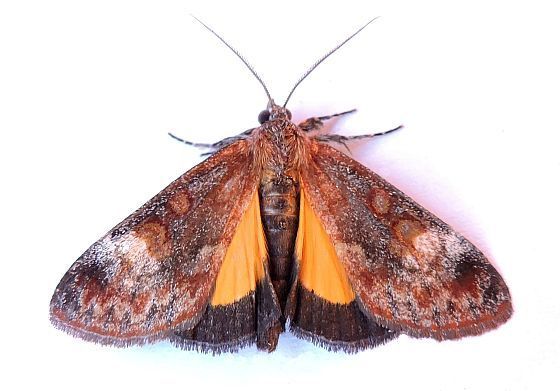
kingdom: Animalia
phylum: Arthropoda
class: Insecta
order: Lepidoptera
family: Noctuidae
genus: Gerra
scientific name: Gerra sevorsa
